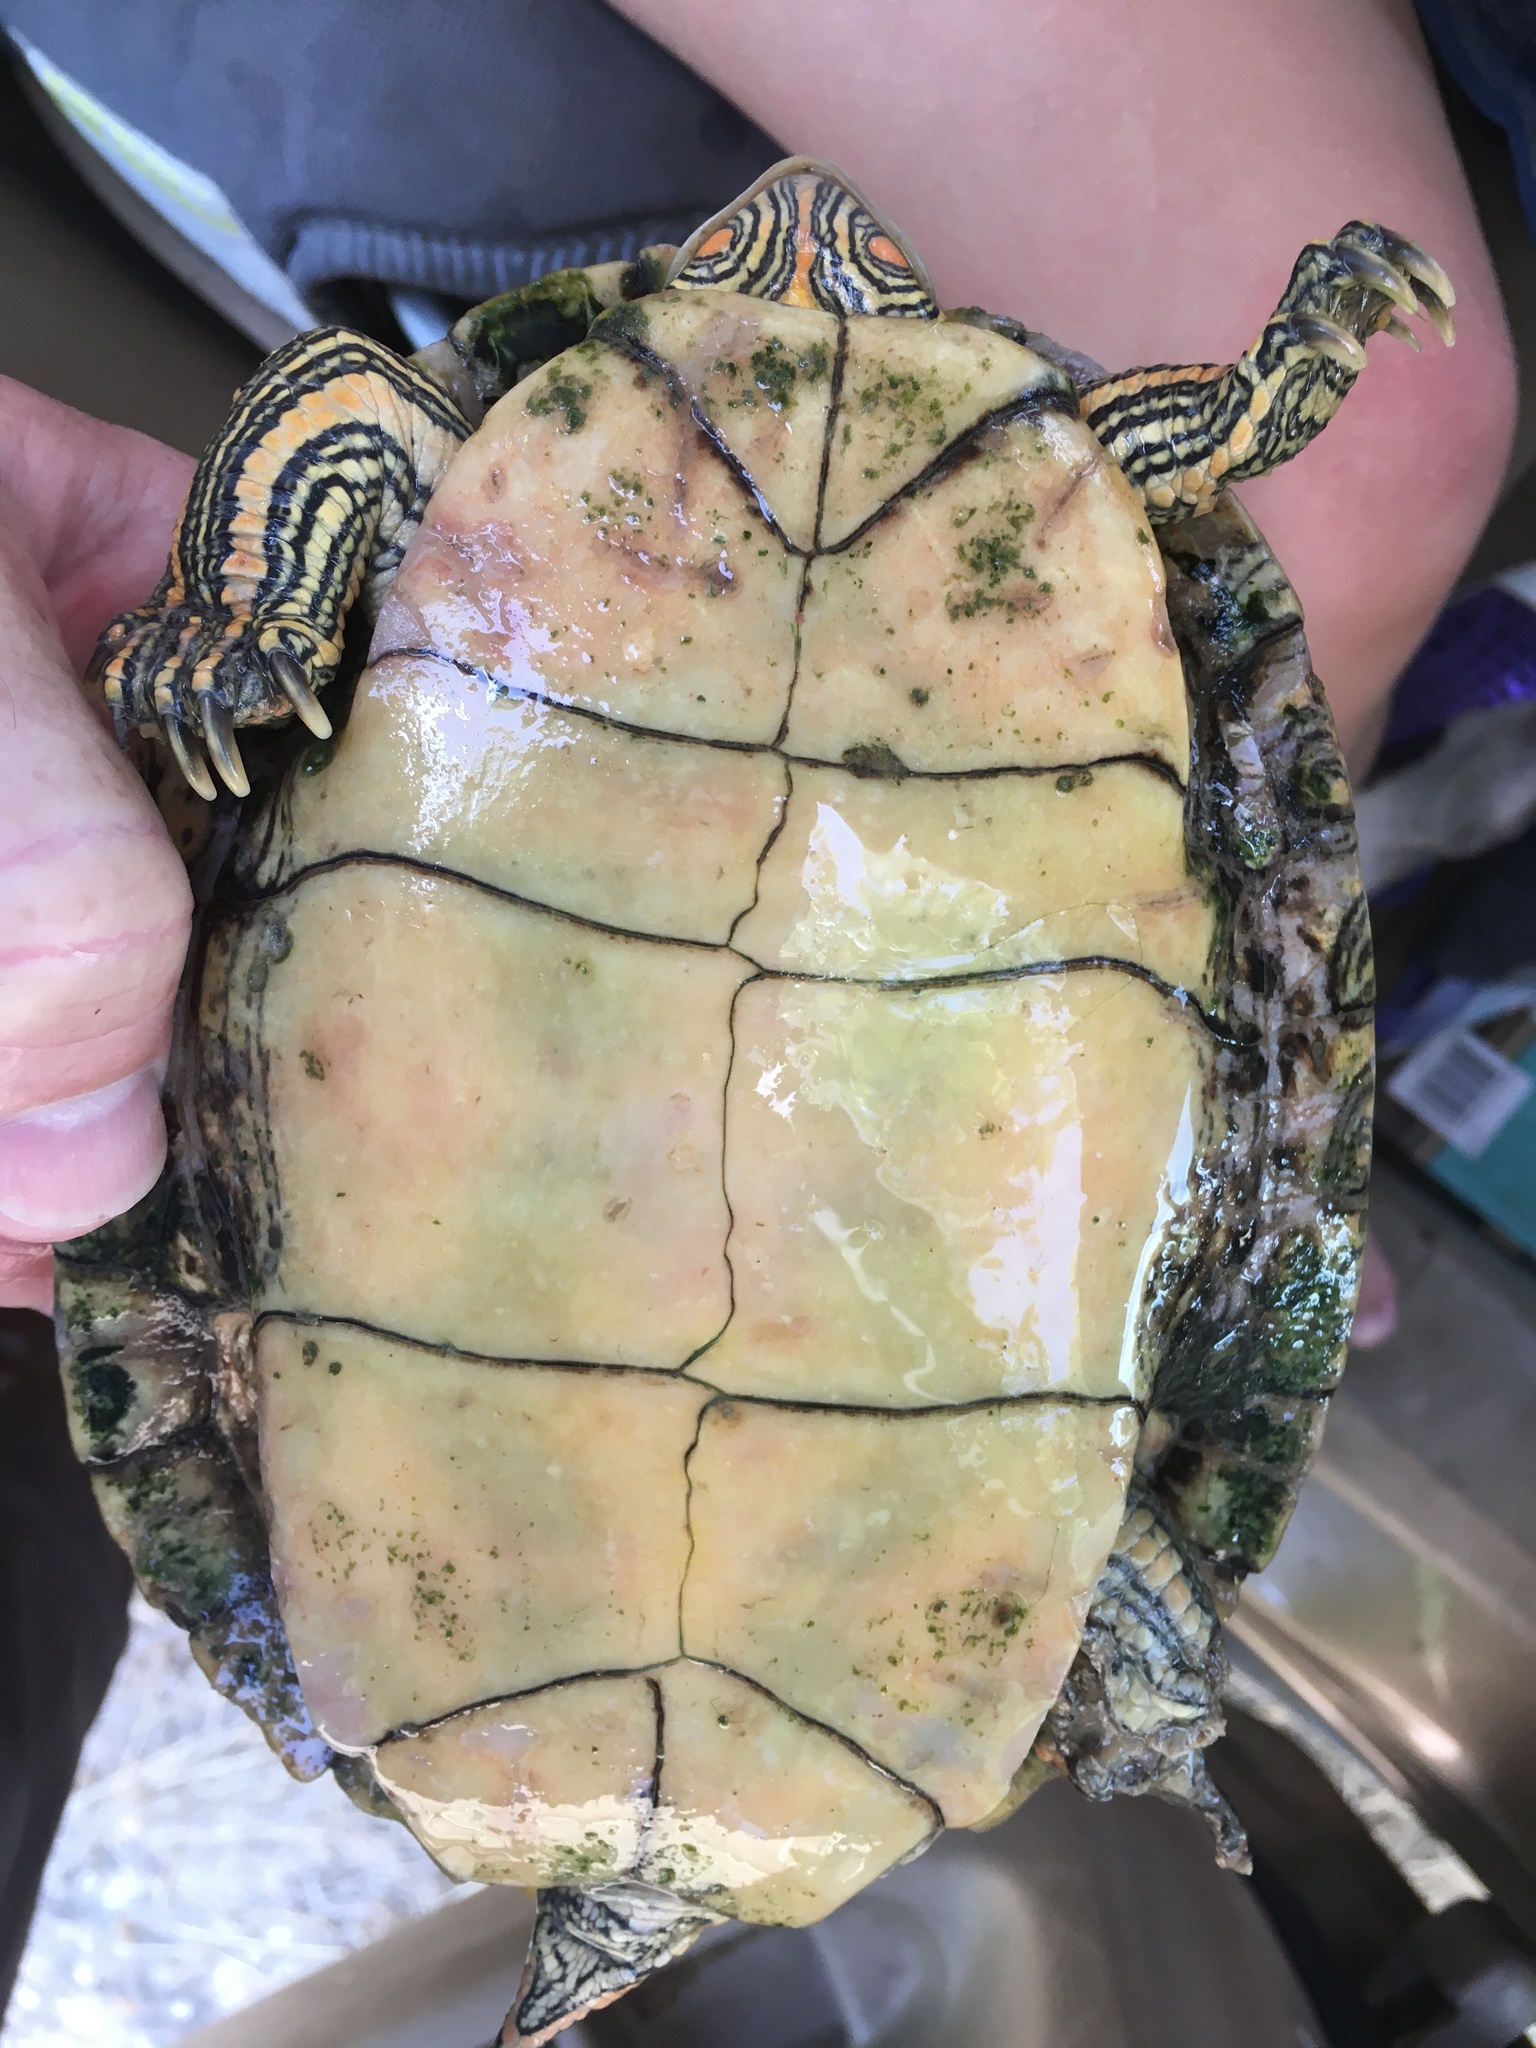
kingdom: Animalia
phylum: Chordata
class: Testudines
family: Emydidae
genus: Graptemys
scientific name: Graptemys versa
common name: Texas map turtle
